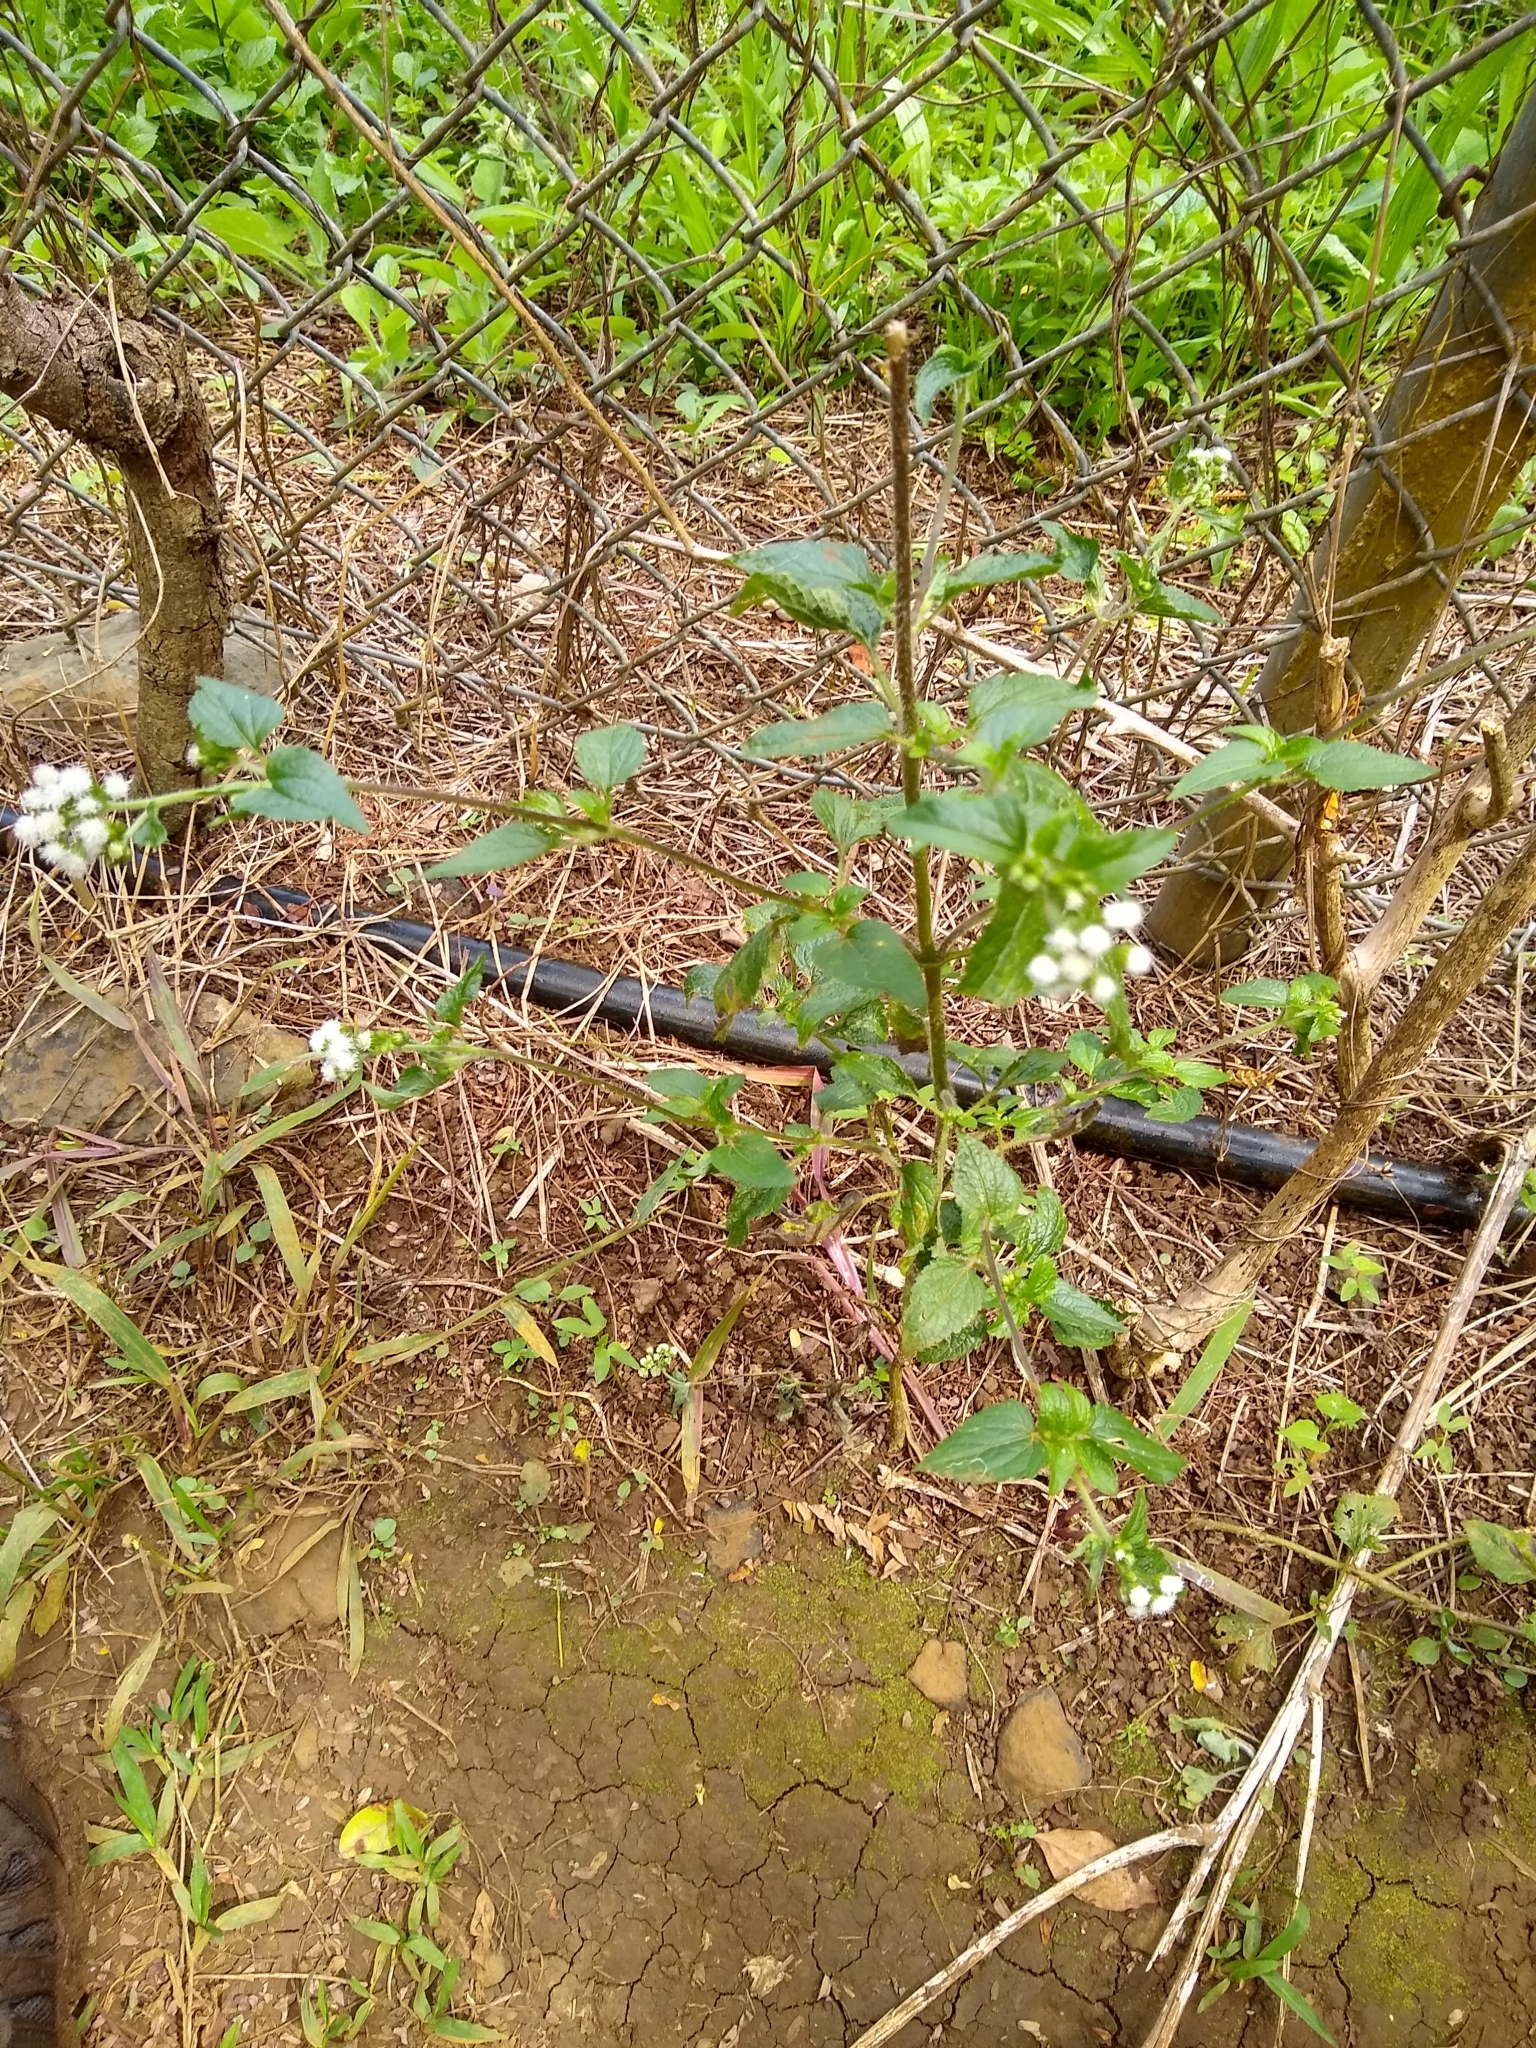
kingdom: Plantae
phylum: Tracheophyta
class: Magnoliopsida
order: Asterales
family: Asteraceae
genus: Ageratum
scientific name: Ageratum conyzoides
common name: Tropical whiteweed
